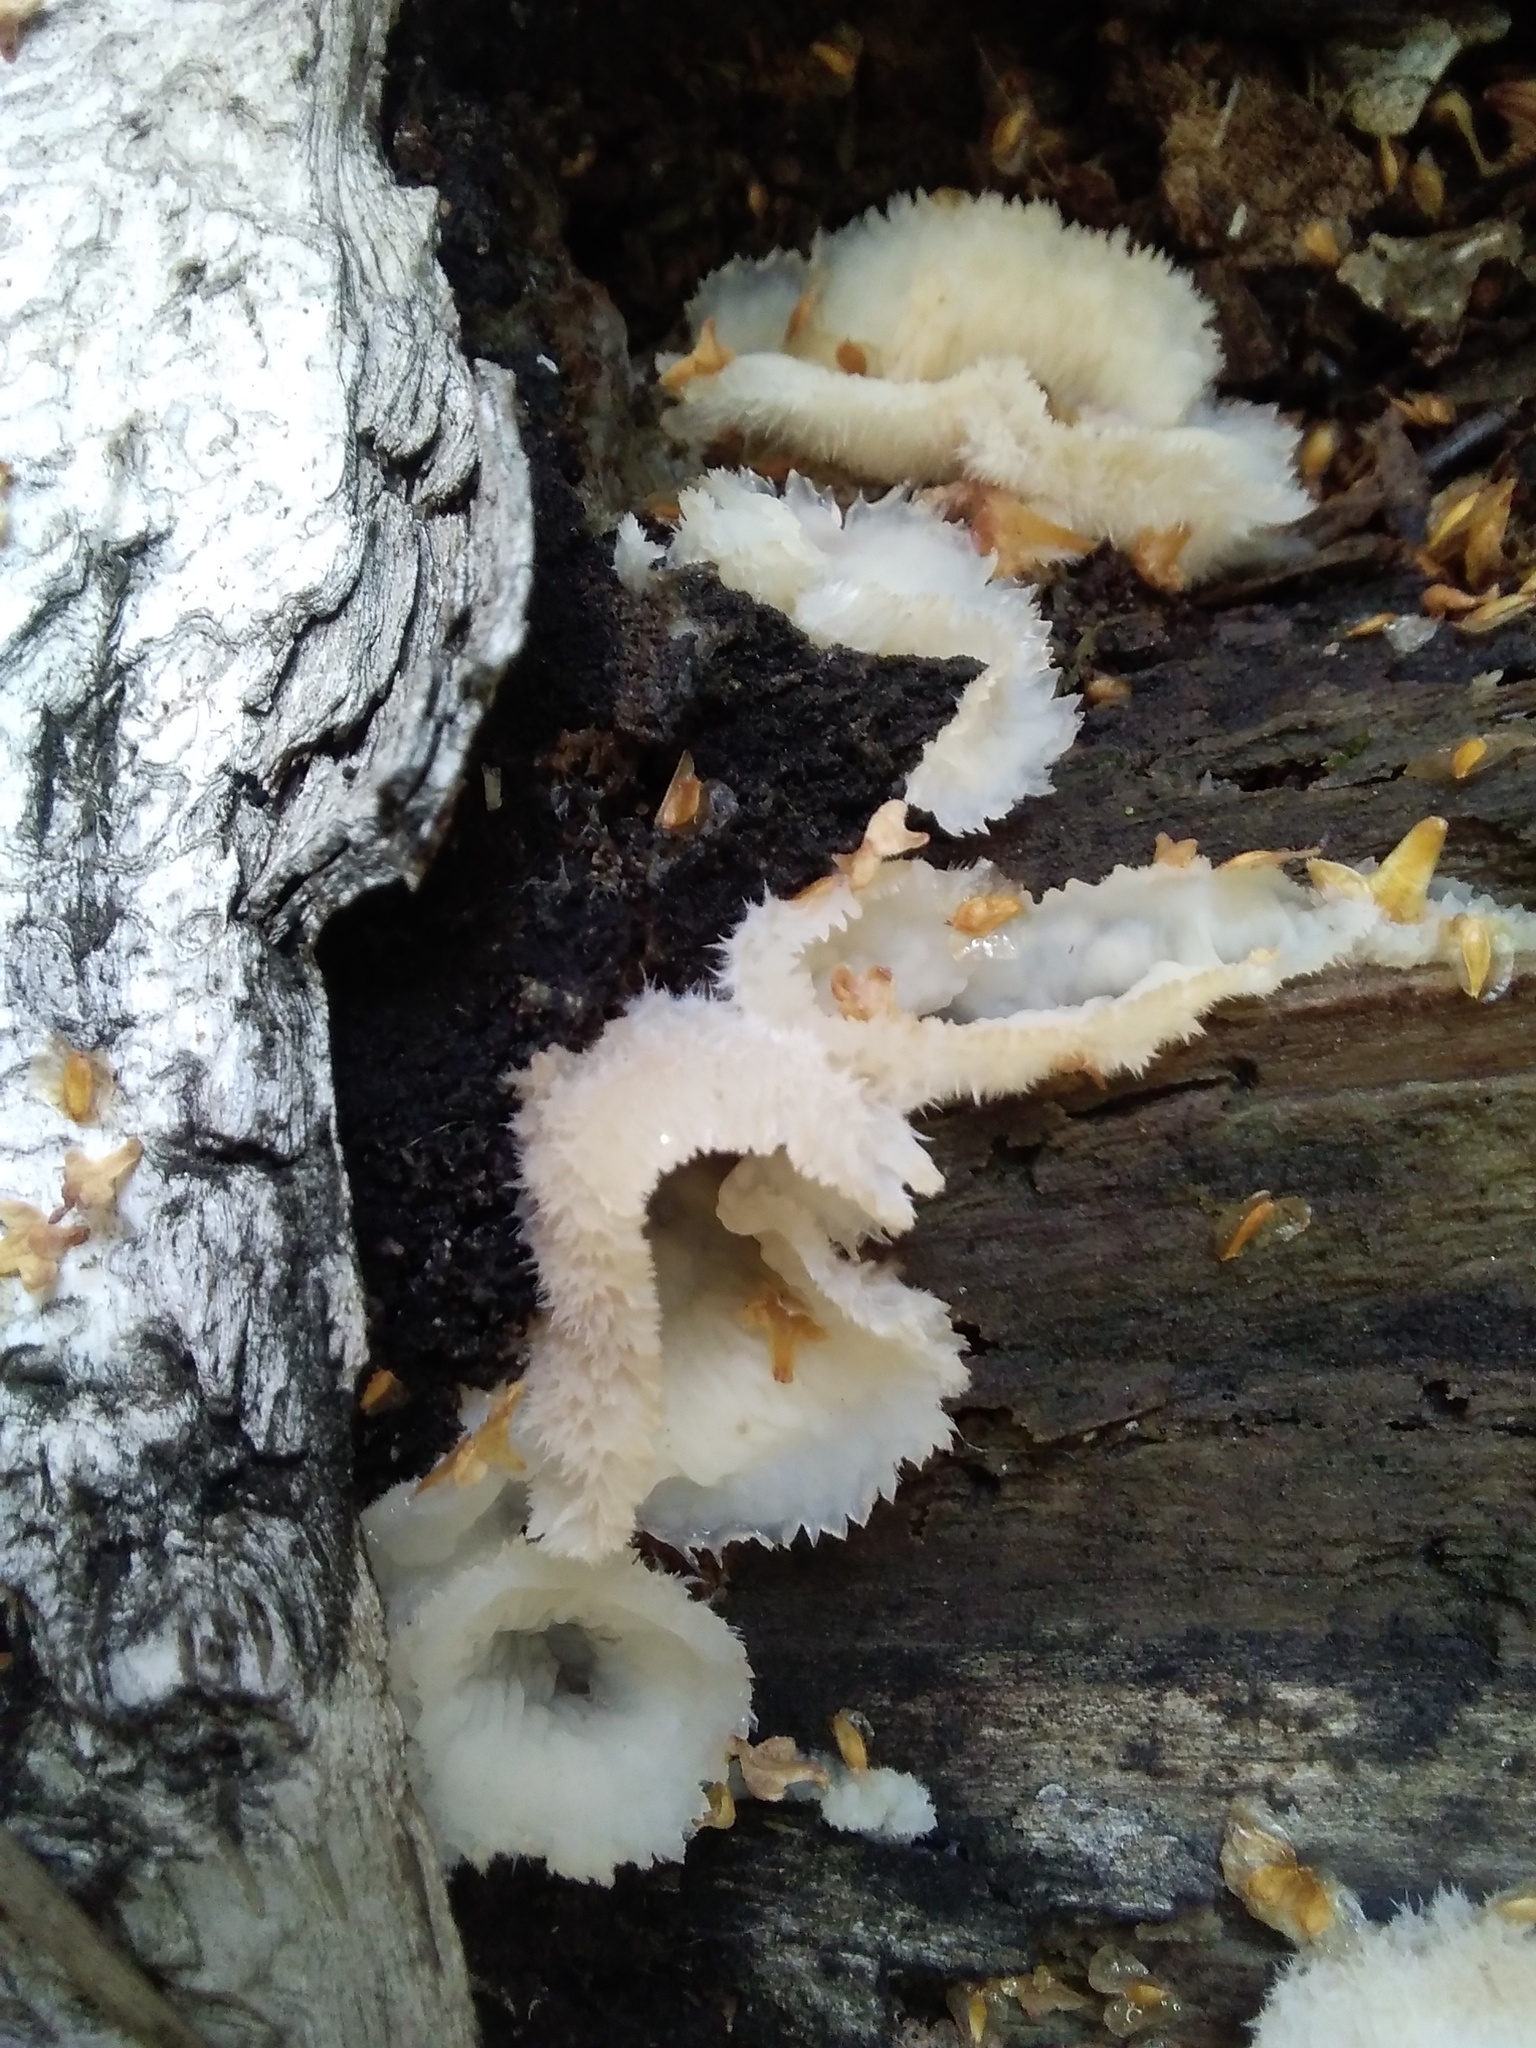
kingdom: Fungi
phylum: Basidiomycota
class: Agaricomycetes
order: Polyporales
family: Meruliaceae
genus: Phlebia
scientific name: Phlebia tremellosa
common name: Jelly rot
